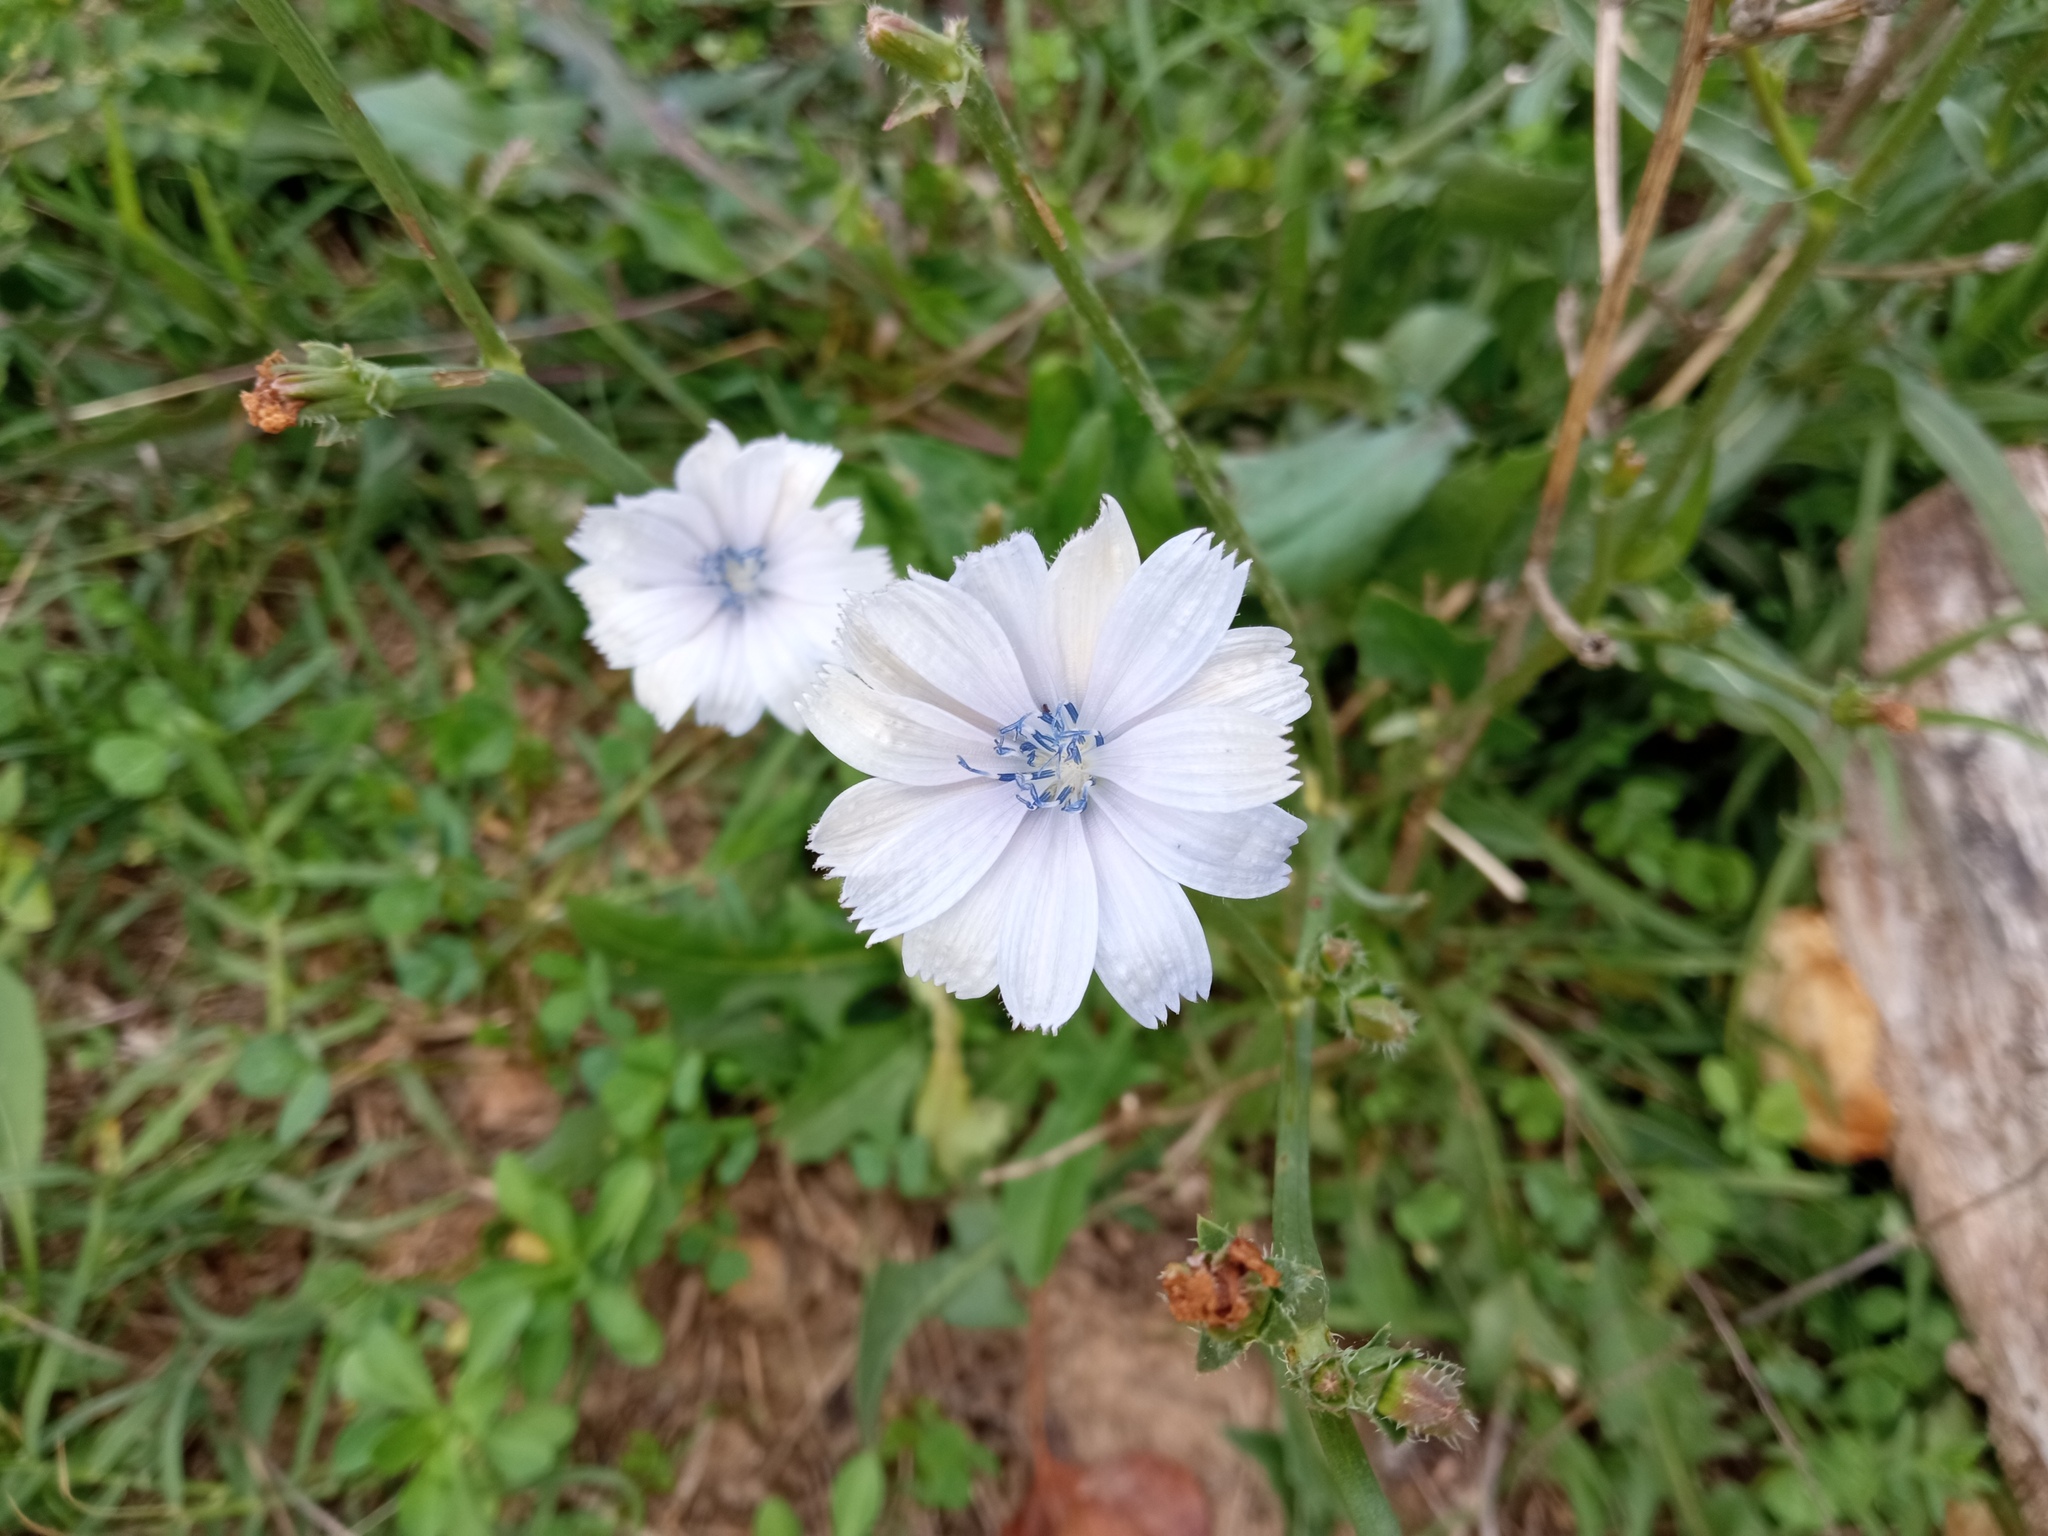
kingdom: Plantae
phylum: Tracheophyta
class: Magnoliopsida
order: Asterales
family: Asteraceae
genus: Cichorium
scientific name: Cichorium intybus
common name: Chicory
